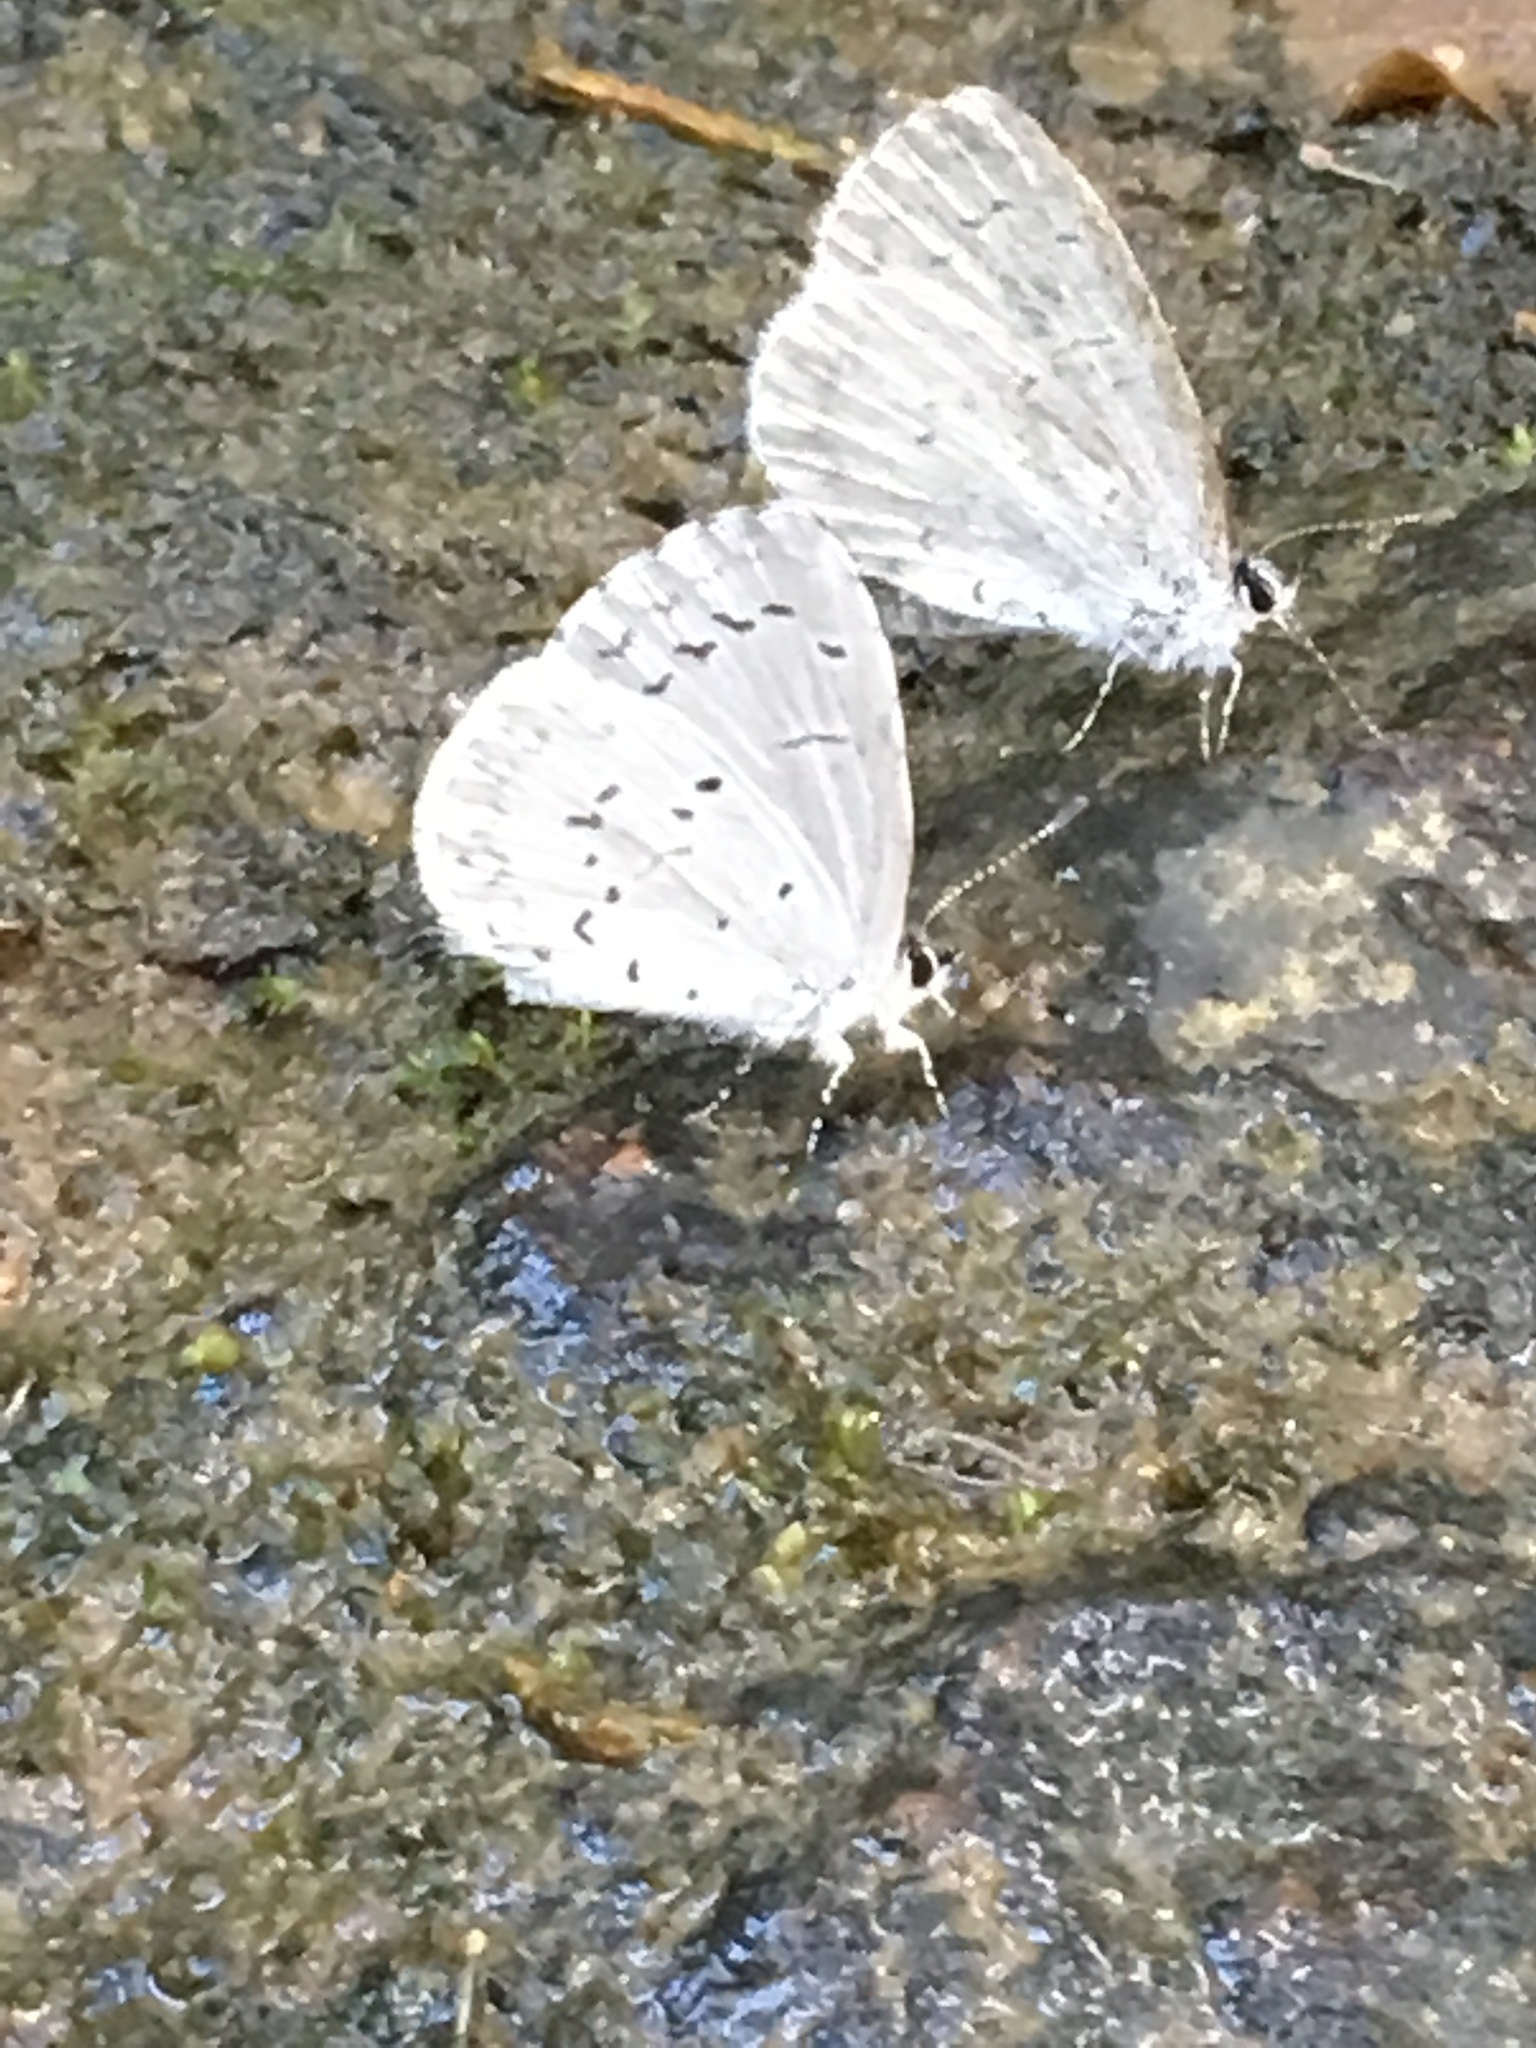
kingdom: Animalia
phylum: Arthropoda
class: Insecta
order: Lepidoptera
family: Lycaenidae
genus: Cyaniris
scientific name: Cyaniris neglecta
